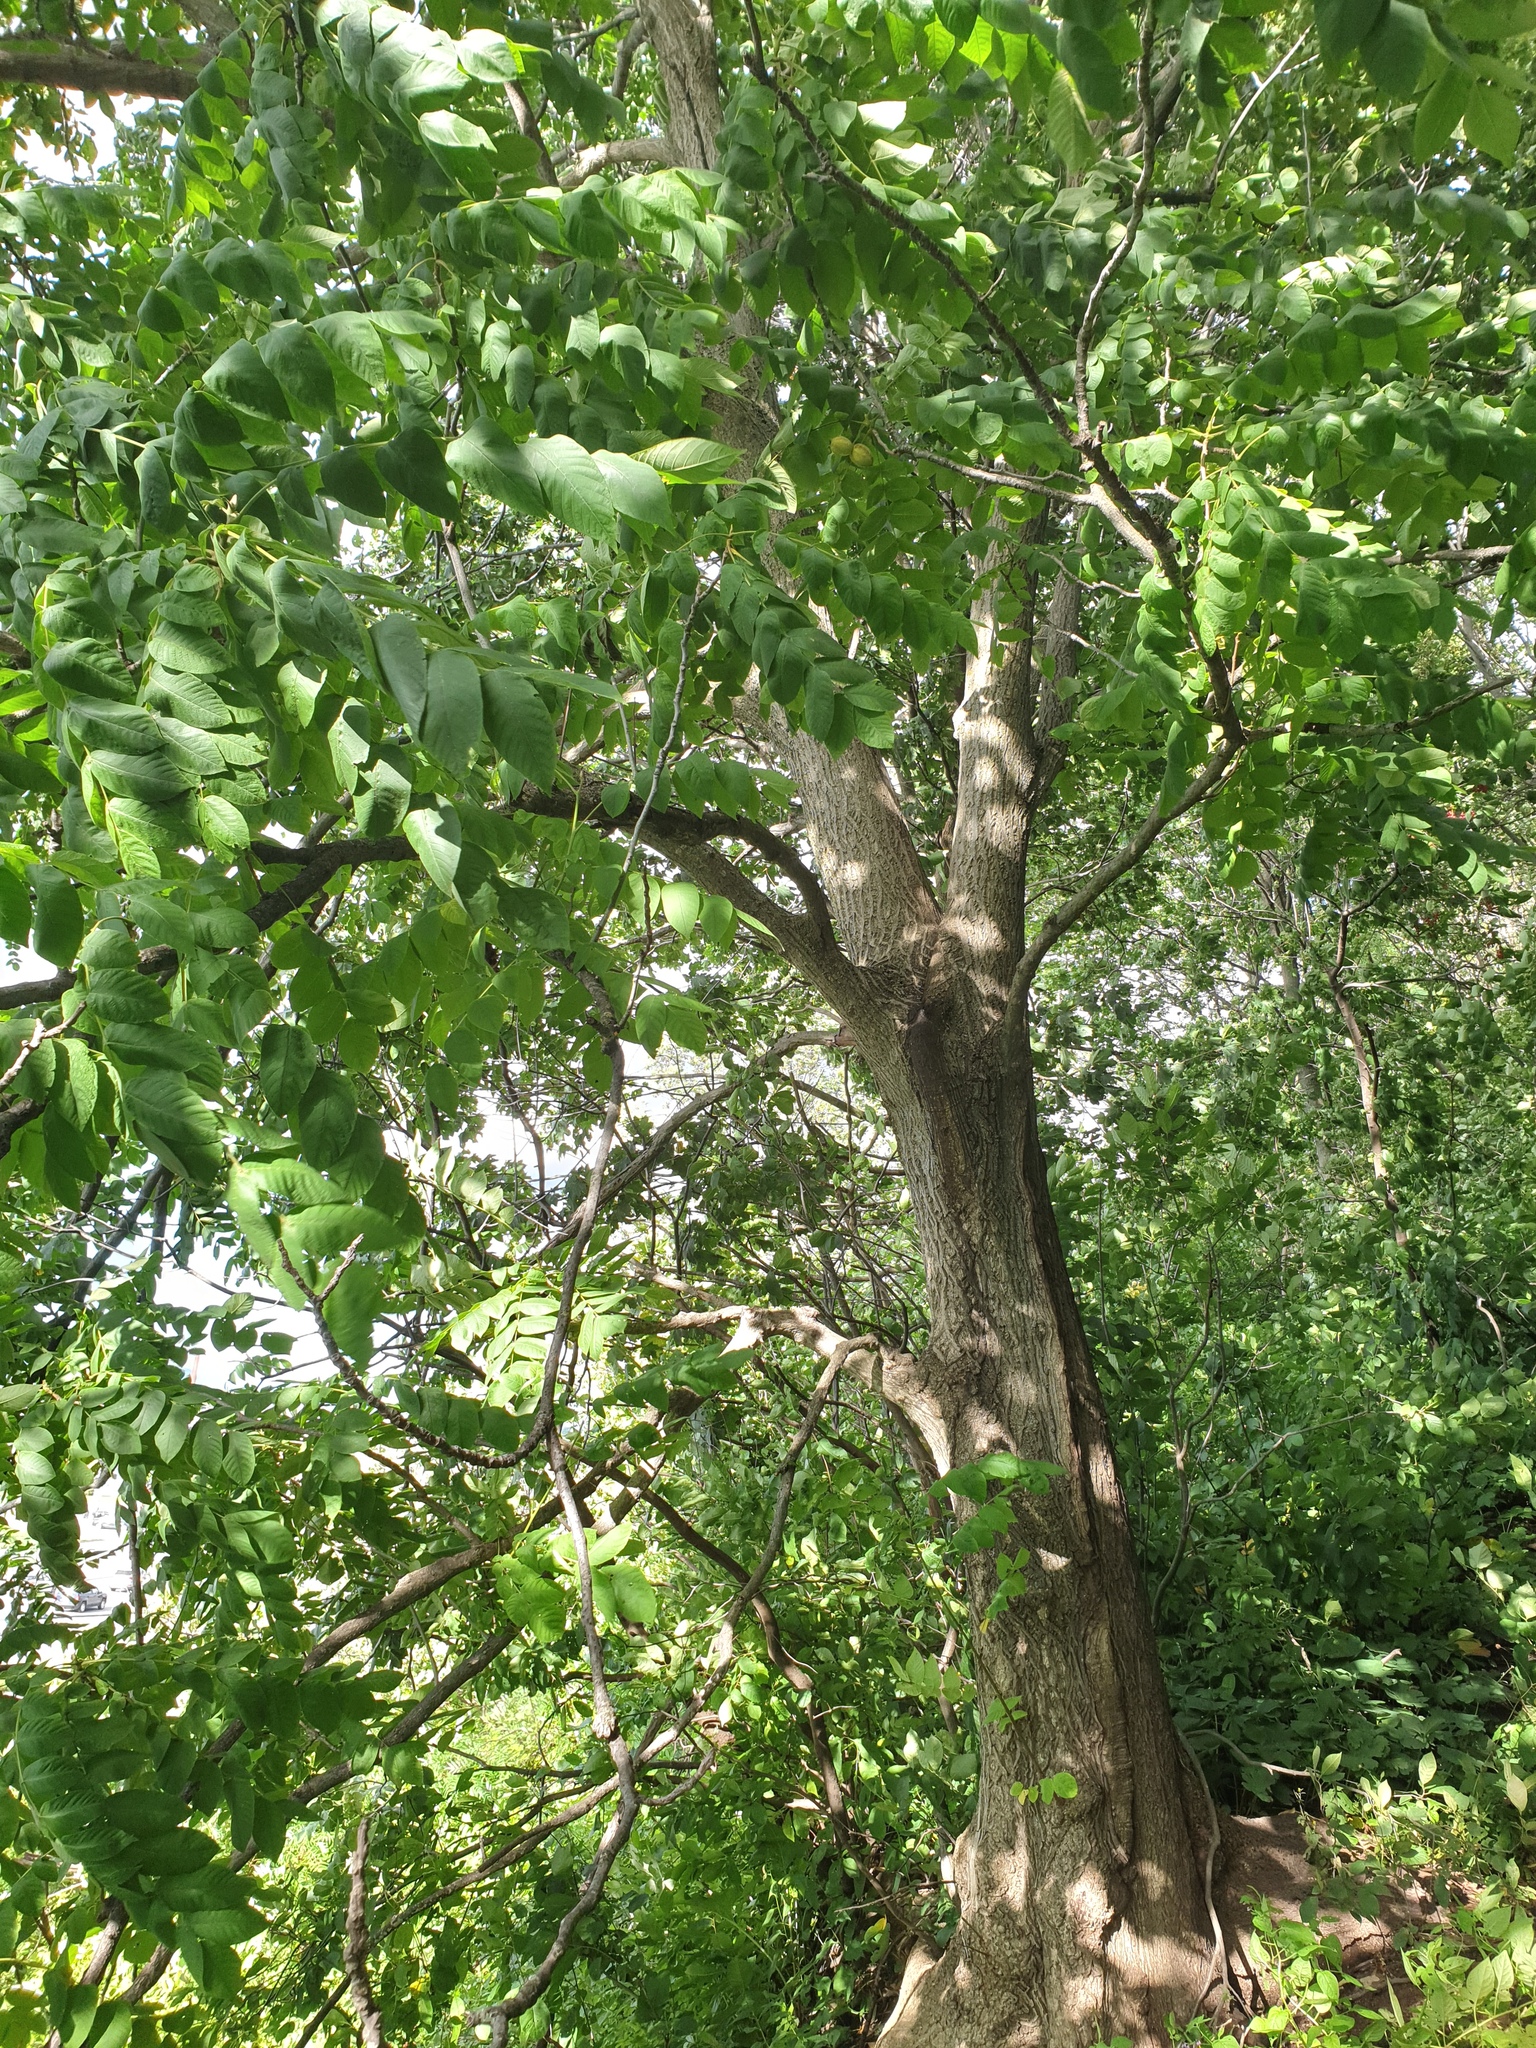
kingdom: Plantae
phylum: Tracheophyta
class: Magnoliopsida
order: Fagales
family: Juglandaceae
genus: Juglans
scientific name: Juglans cinerea
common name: Butternut
